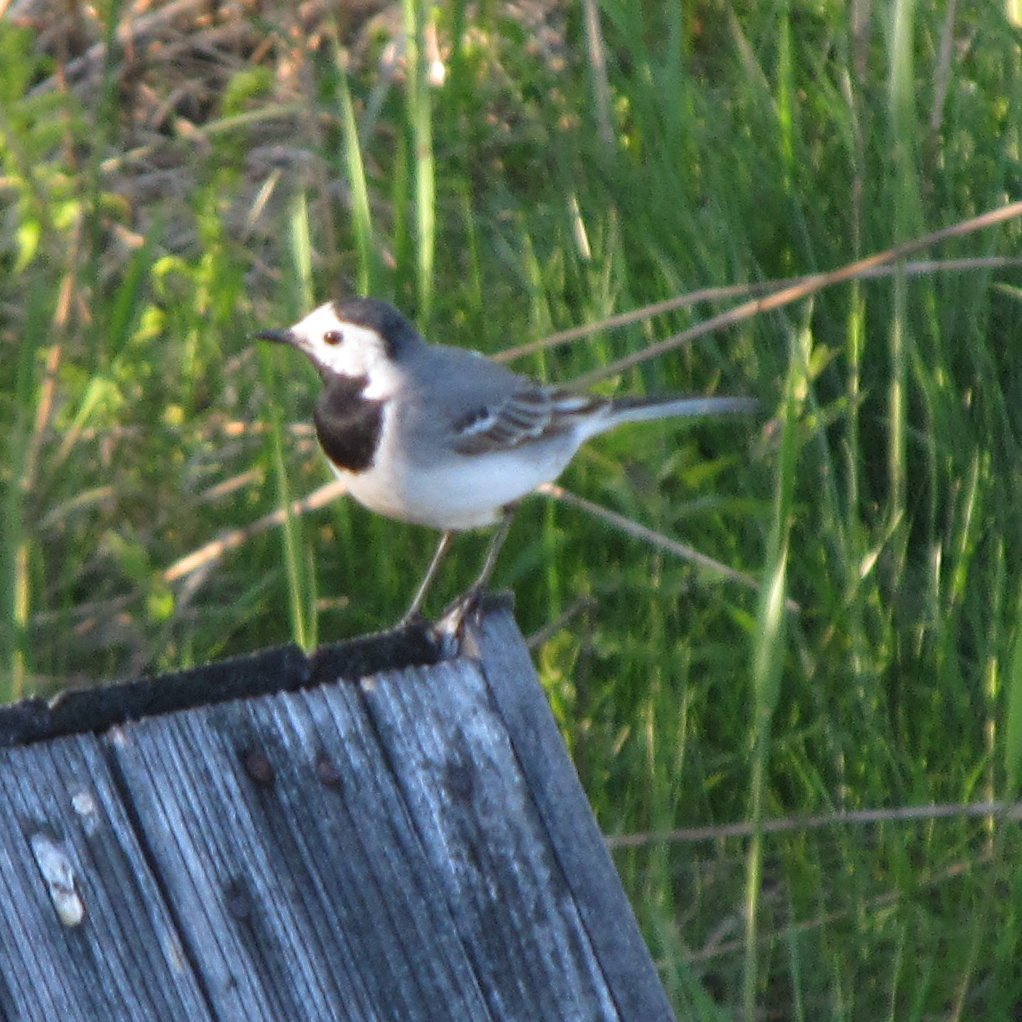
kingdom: Animalia
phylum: Chordata
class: Aves
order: Passeriformes
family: Motacillidae
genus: Motacilla
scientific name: Motacilla alba
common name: White wagtail
